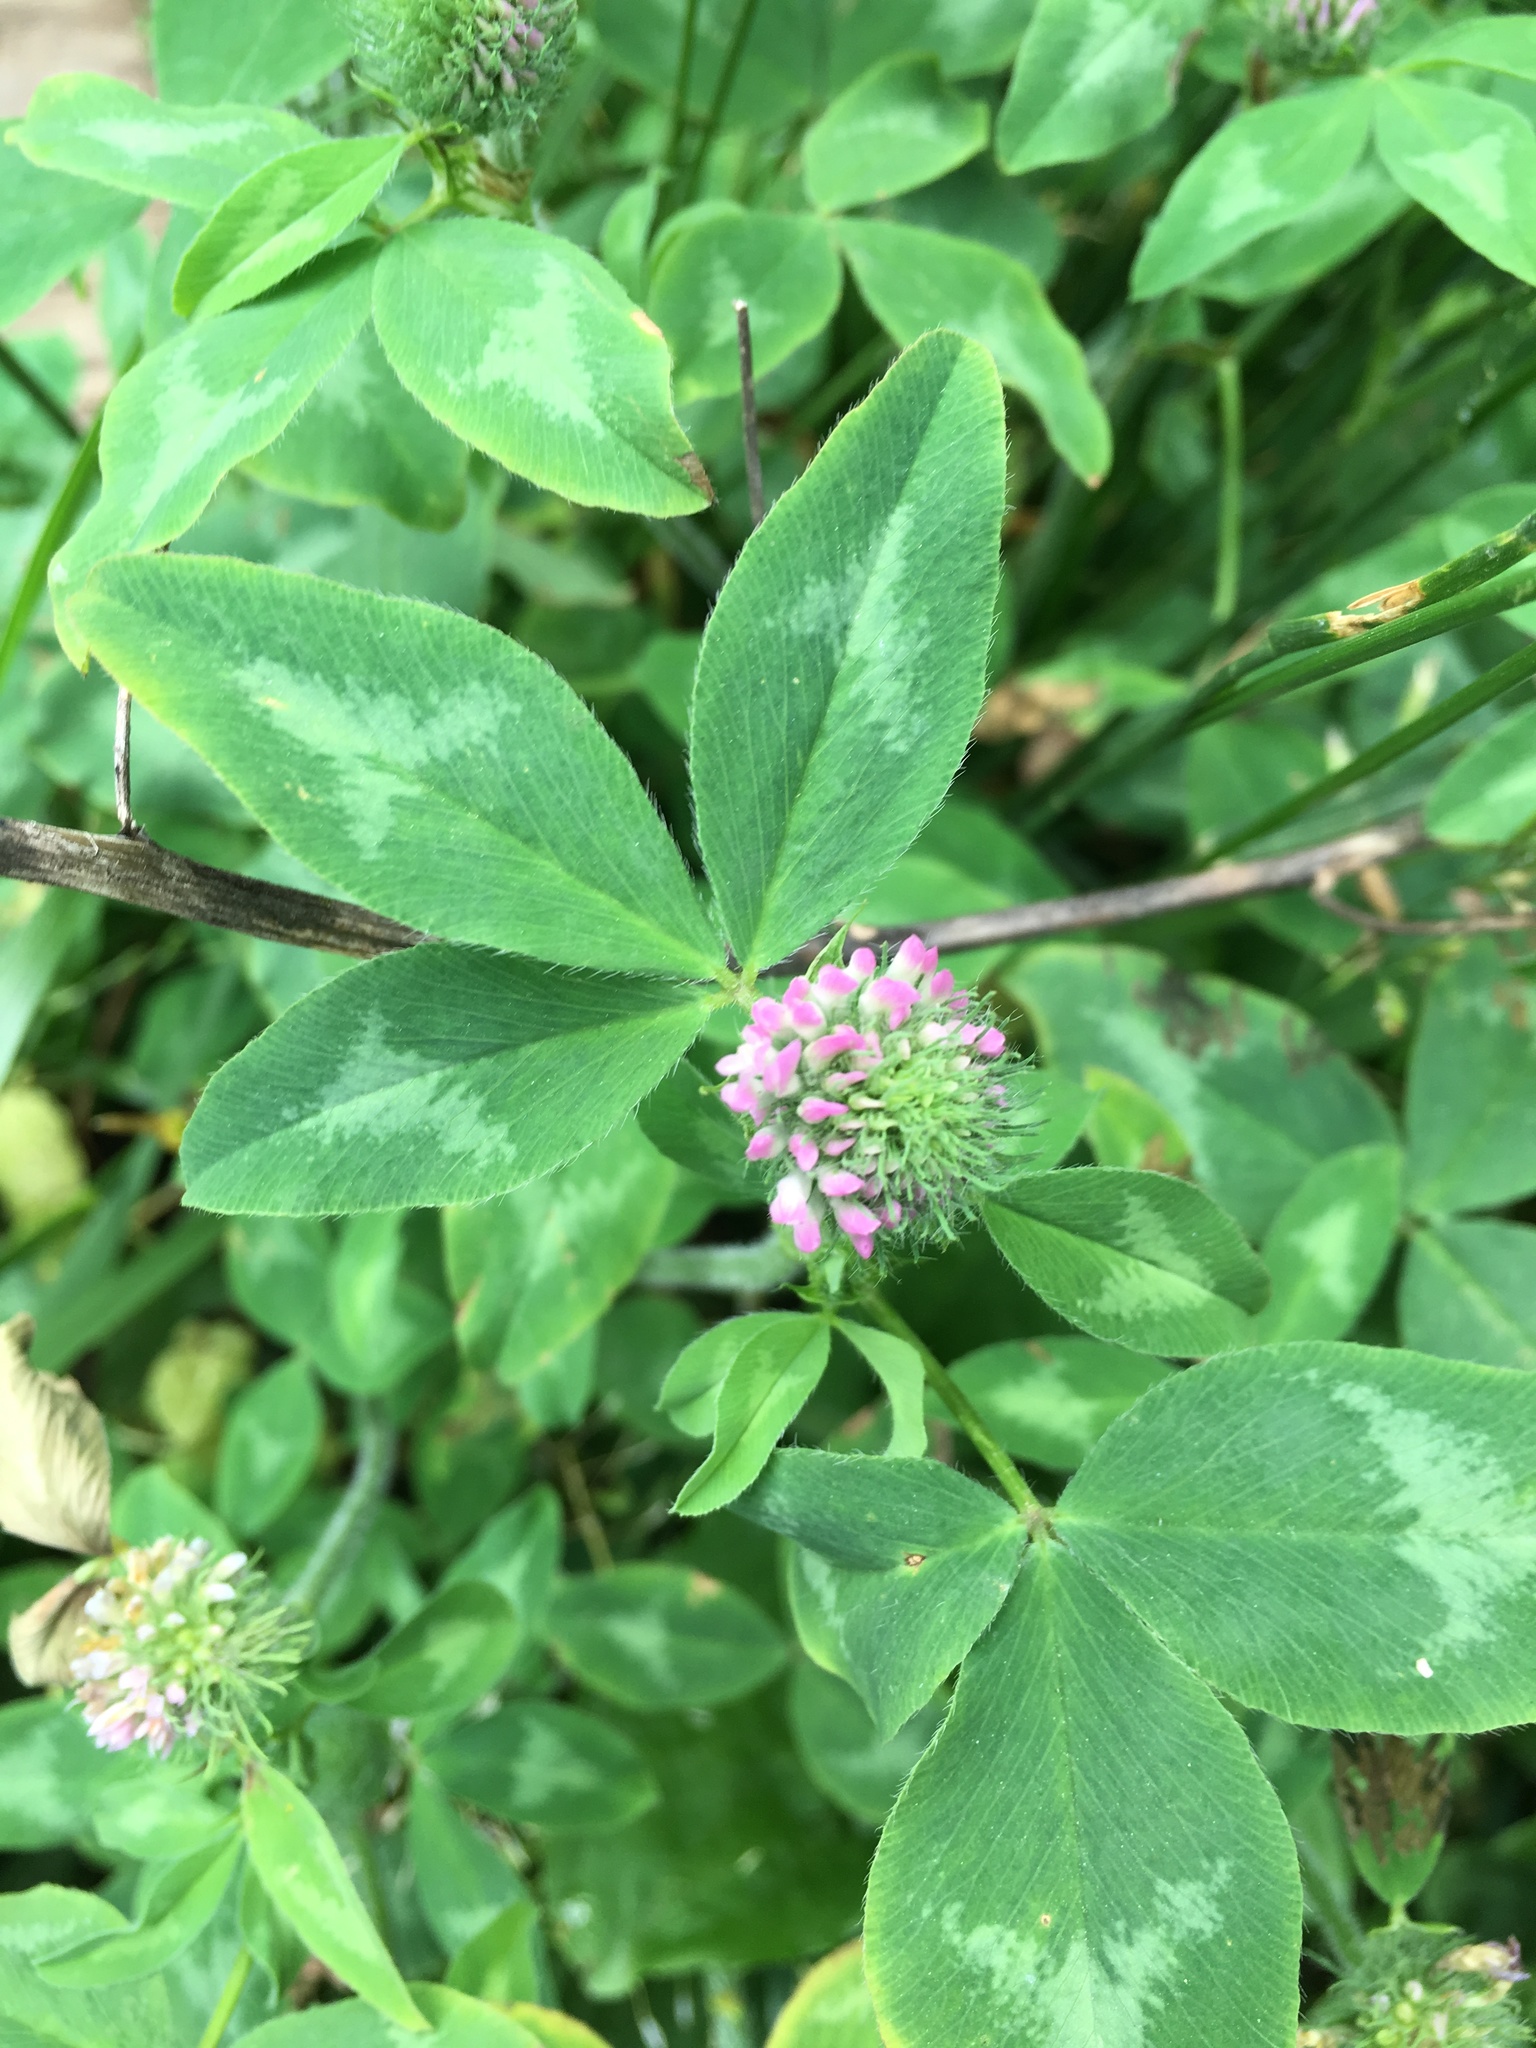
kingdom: Plantae
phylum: Tracheophyta
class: Magnoliopsida
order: Fabales
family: Fabaceae
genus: Trifolium
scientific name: Trifolium pratense
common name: Red clover
